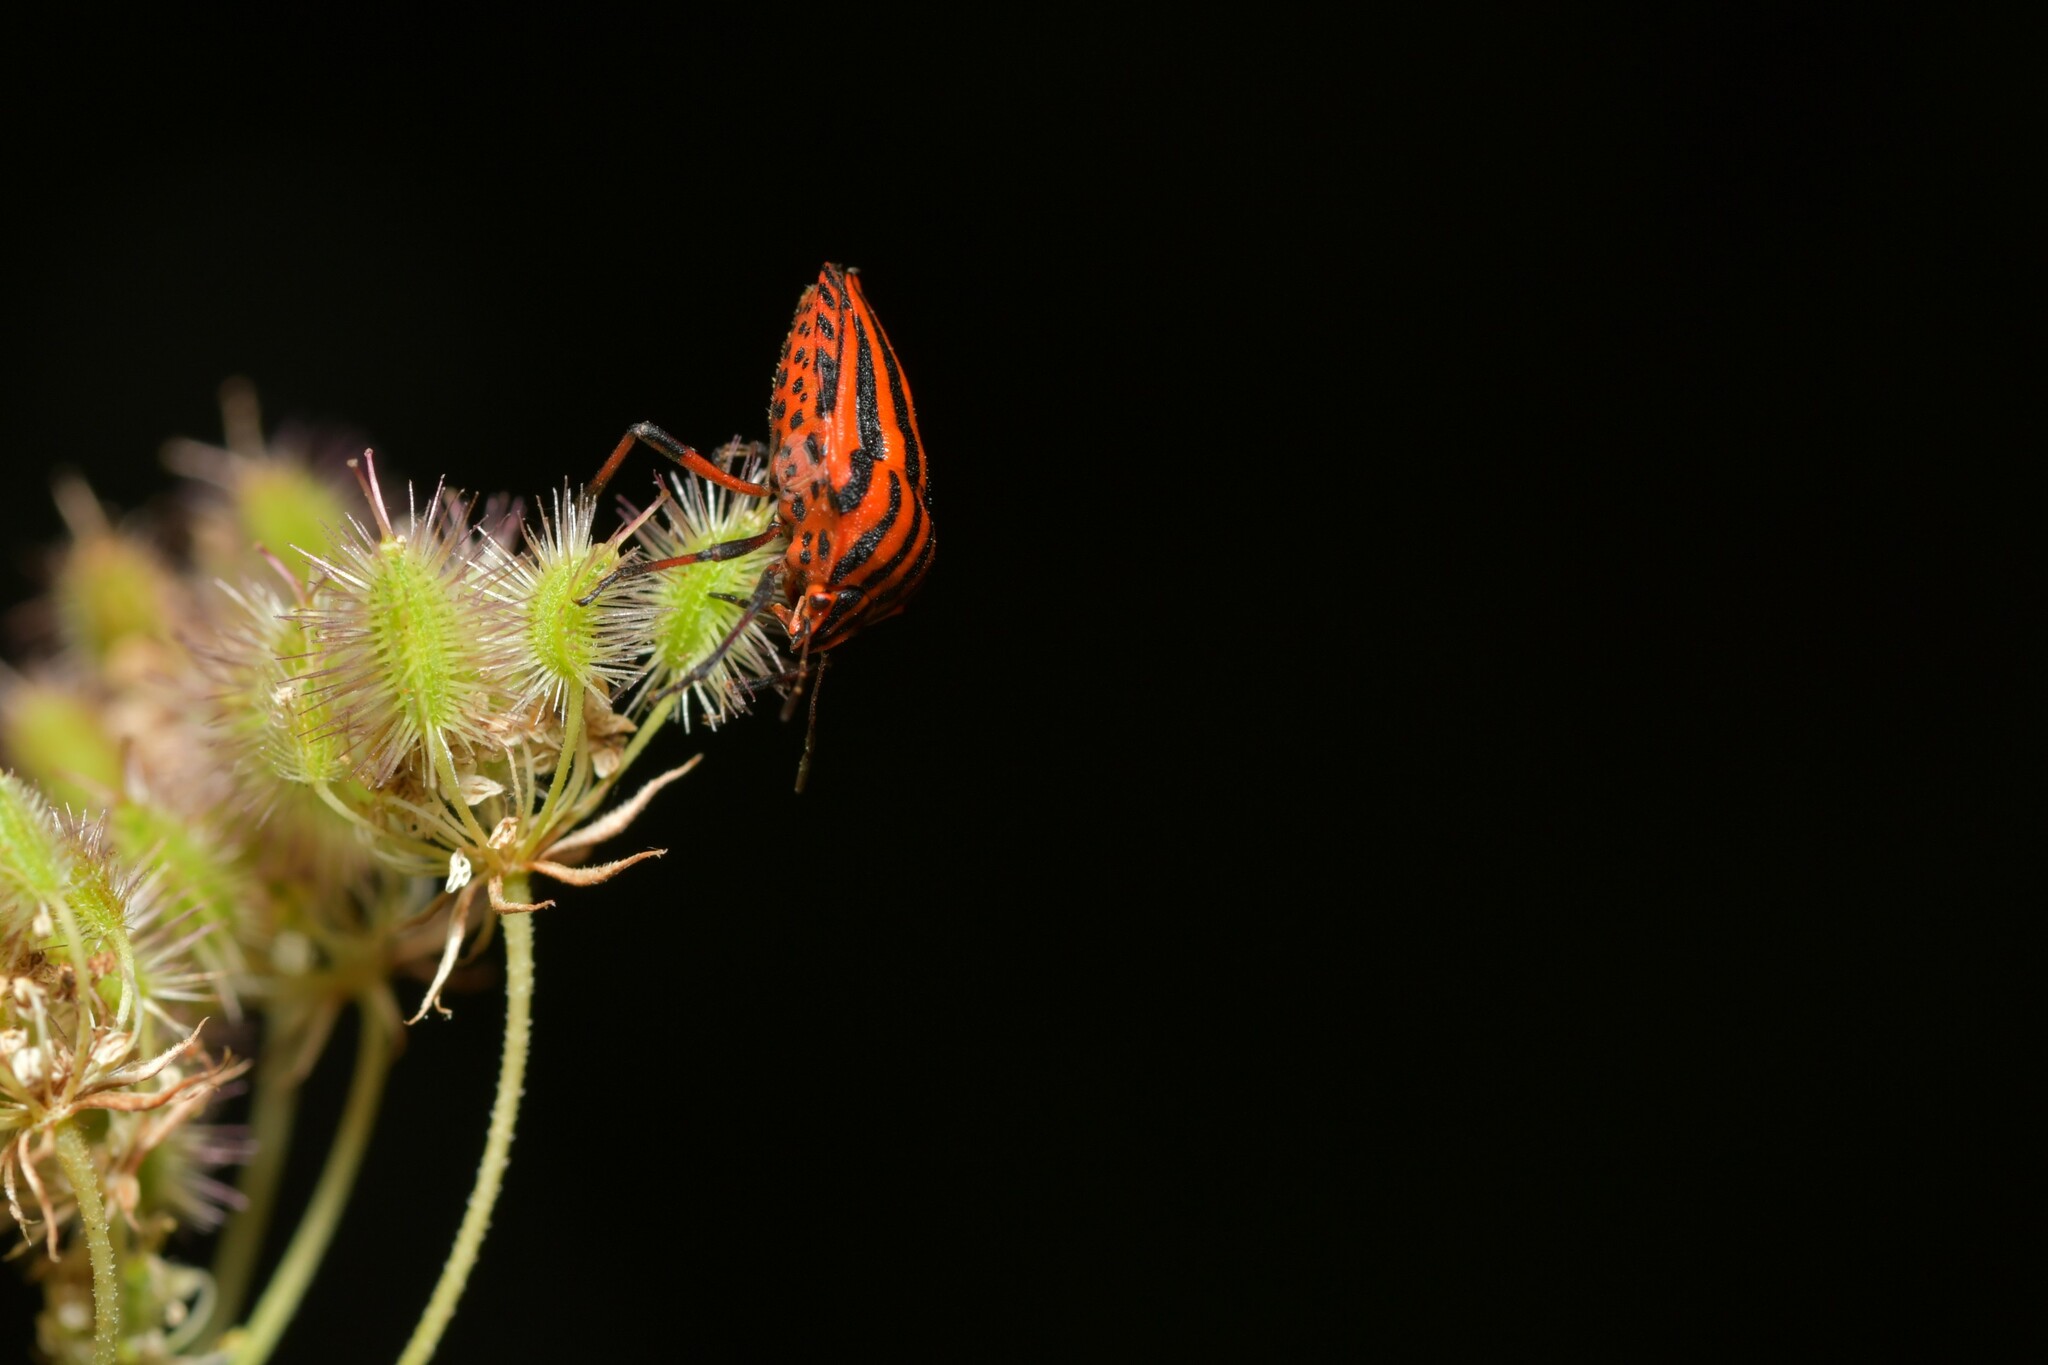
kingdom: Animalia
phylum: Arthropoda
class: Insecta
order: Hemiptera
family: Pentatomidae
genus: Graphosoma
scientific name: Graphosoma italicum
